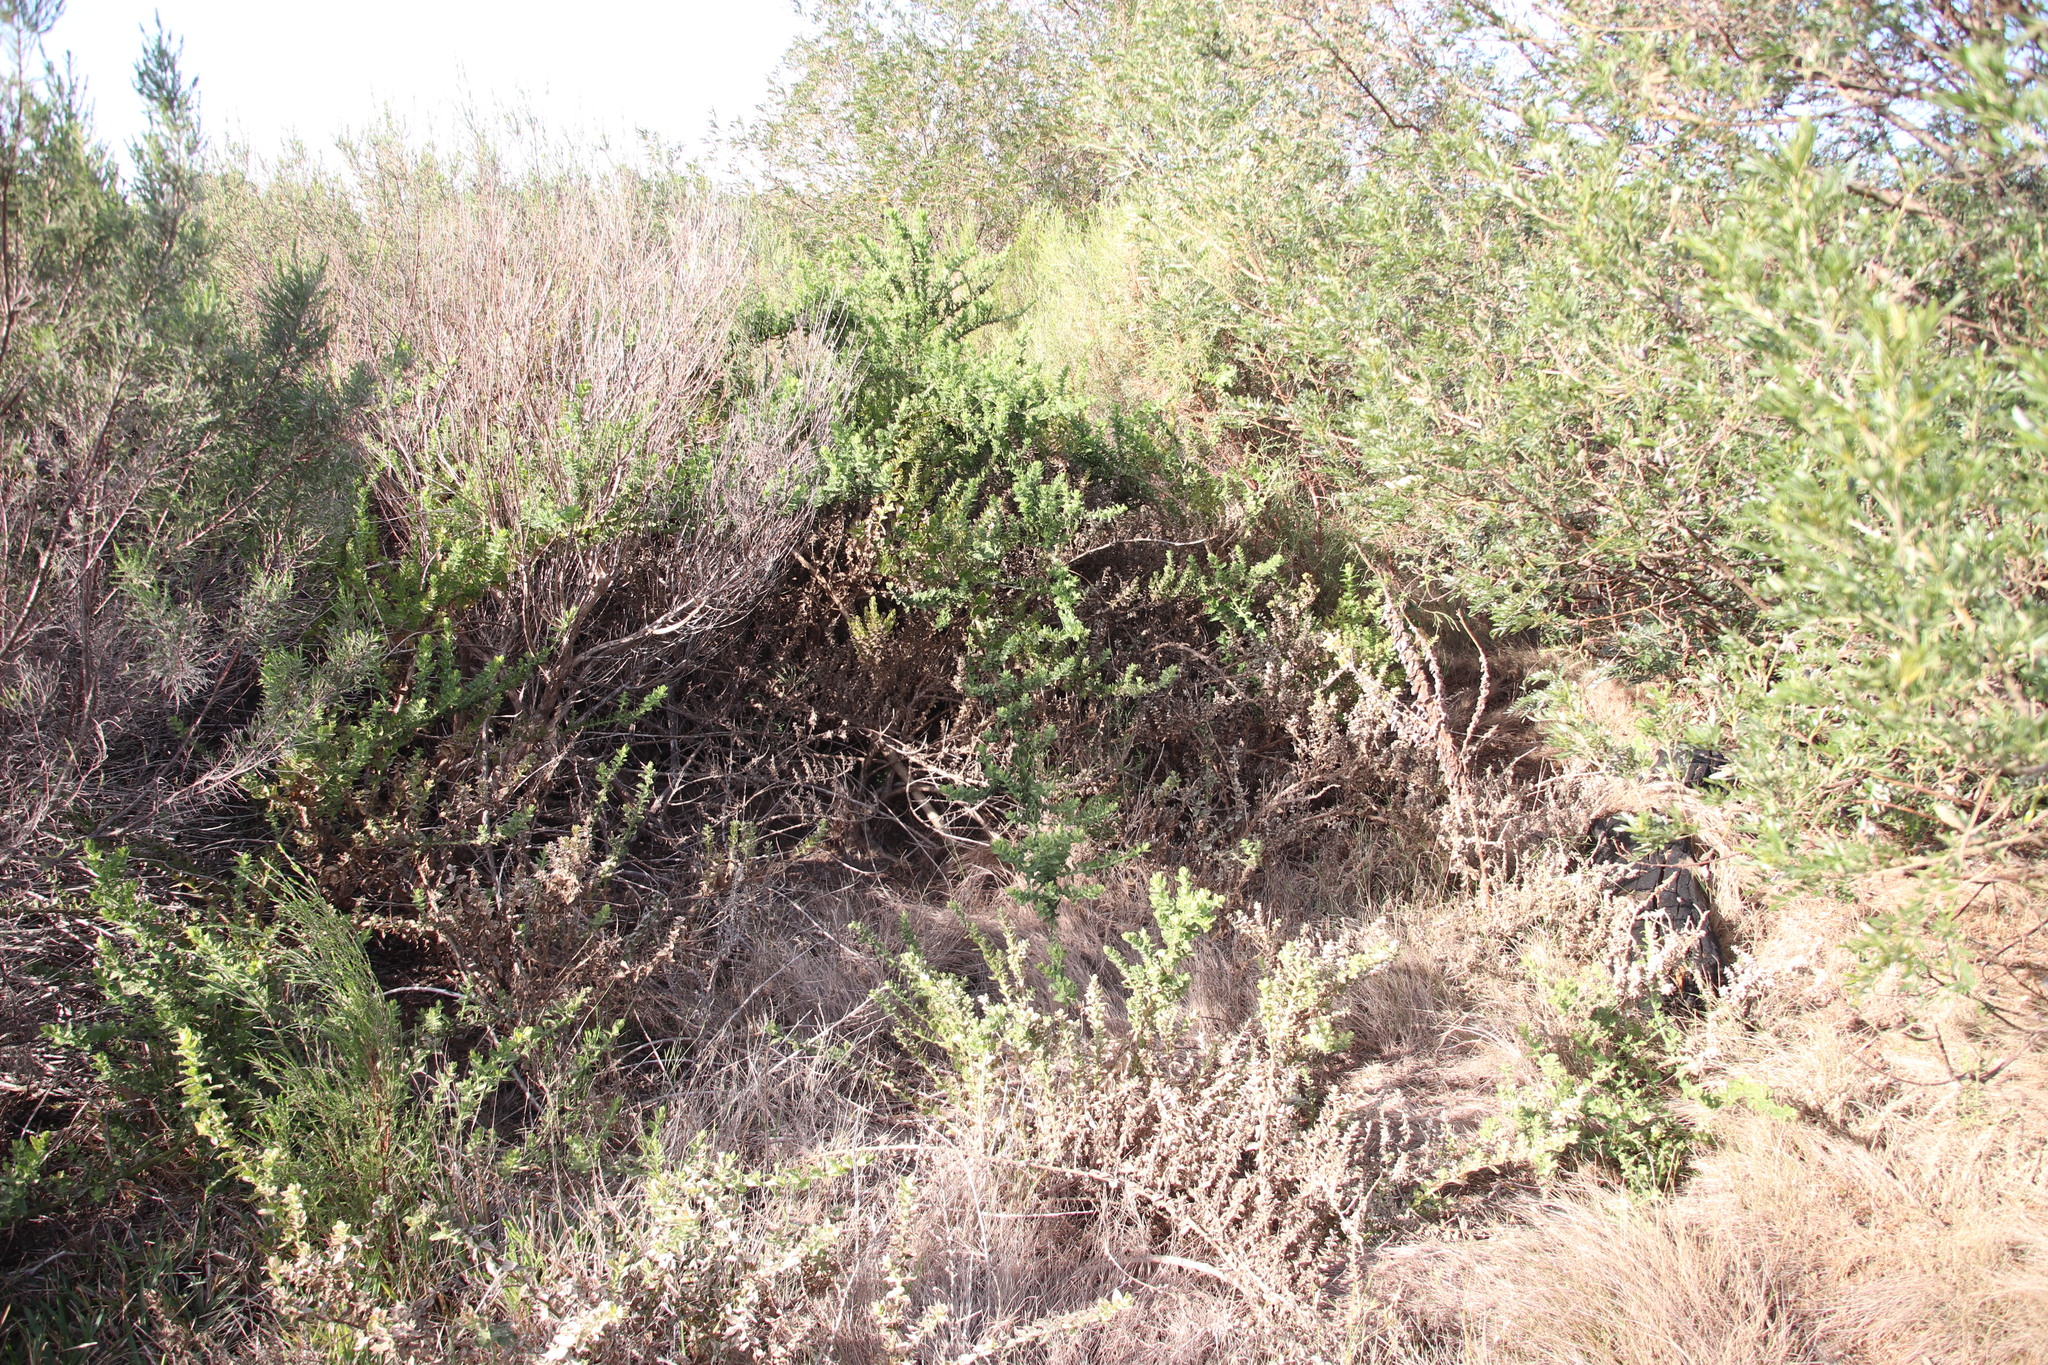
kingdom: Plantae
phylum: Tracheophyta
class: Magnoliopsida
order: Lamiales
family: Scrophulariaceae
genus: Oftia
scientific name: Oftia africana
